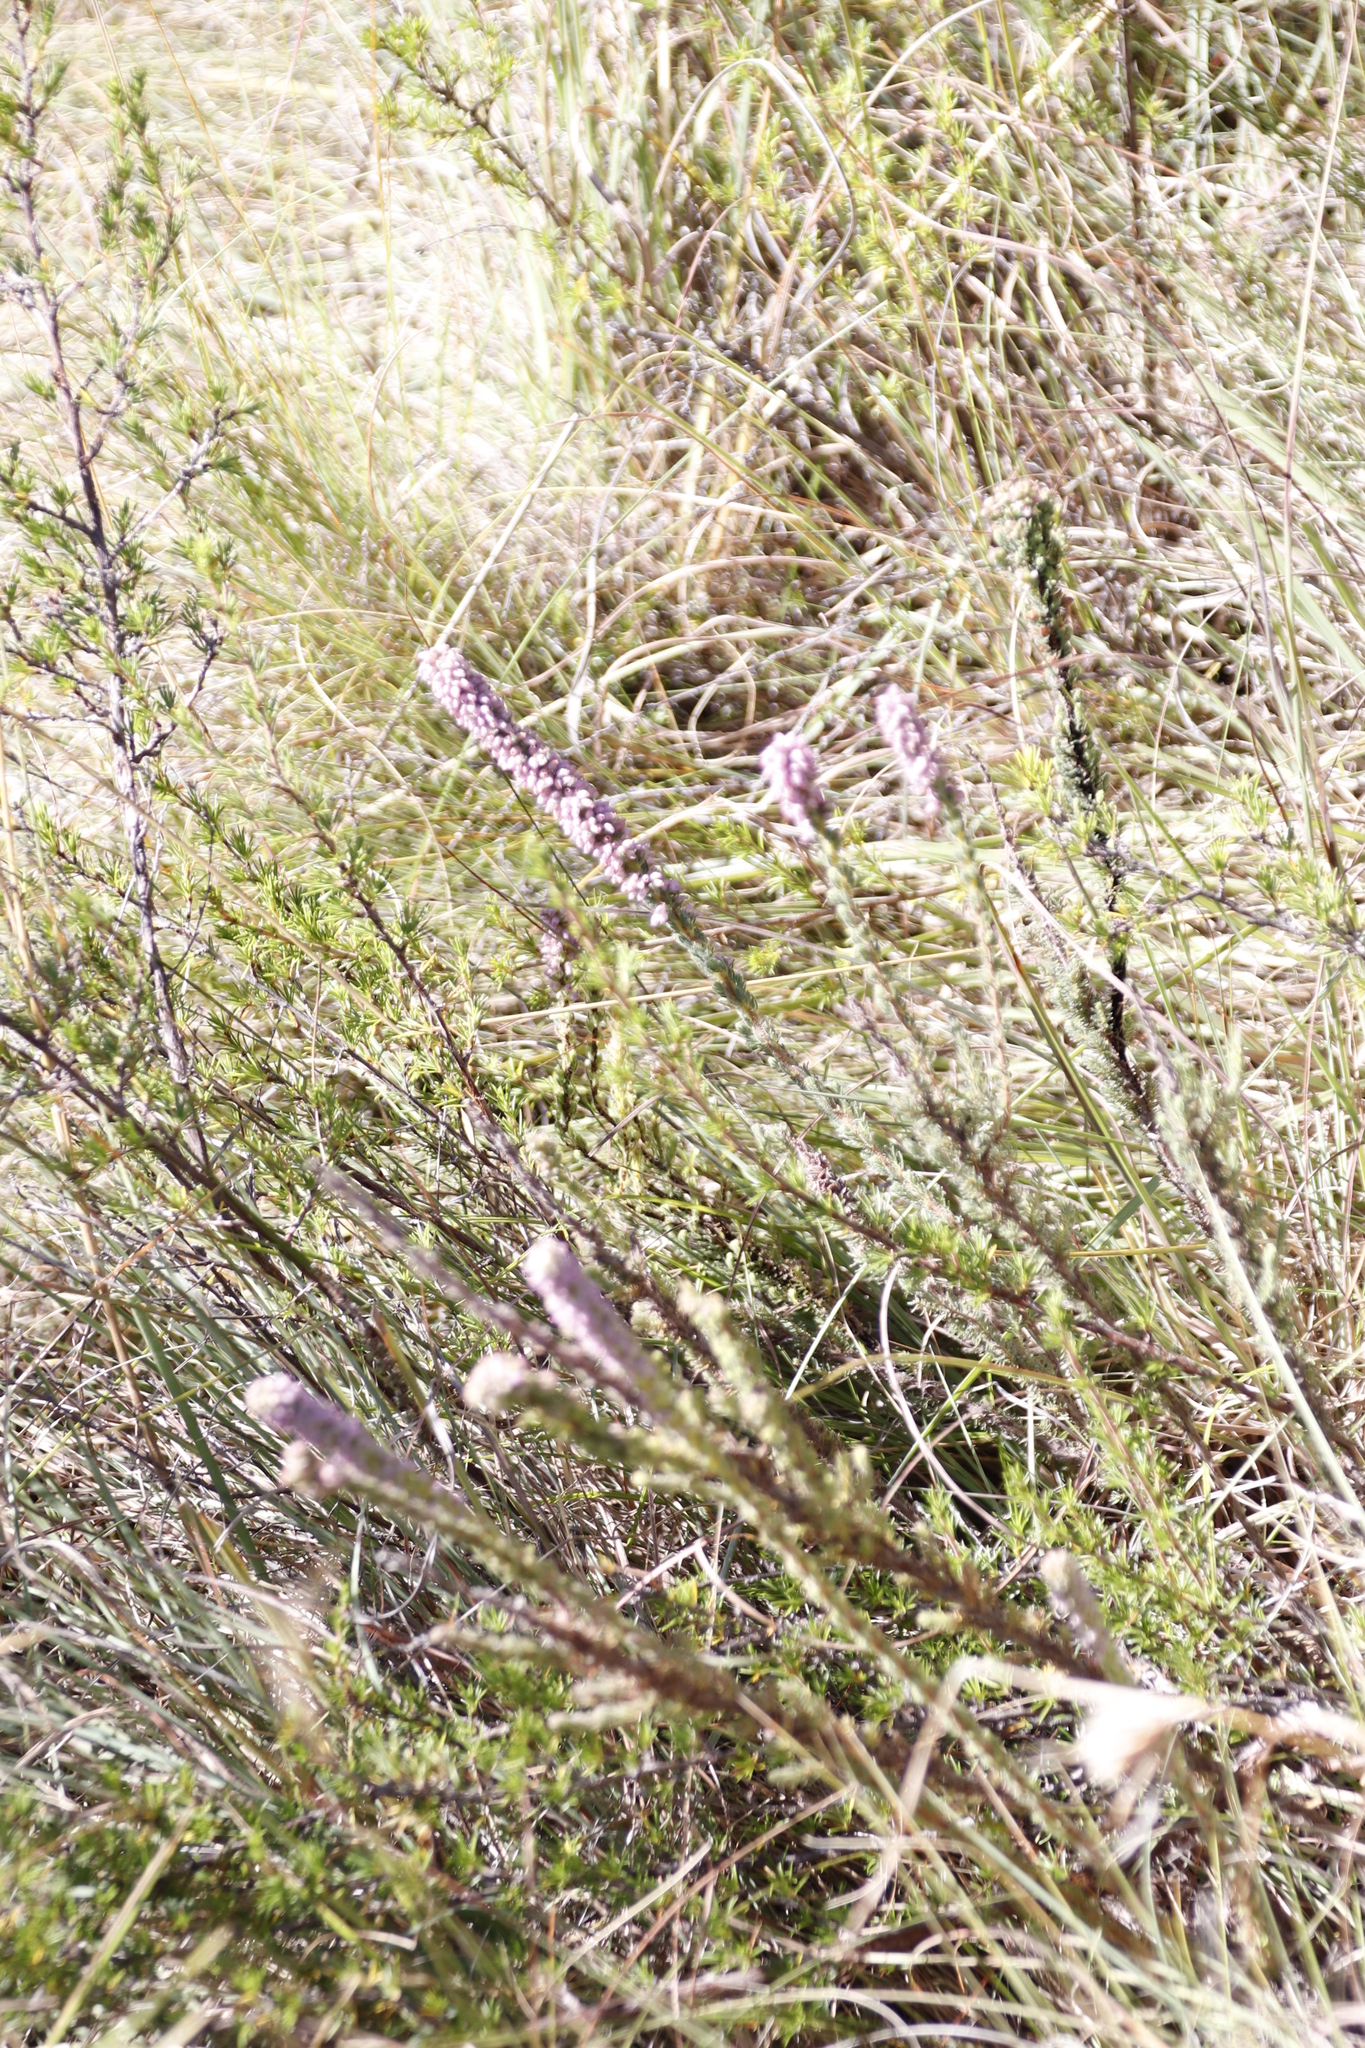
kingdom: Plantae
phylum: Tracheophyta
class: Magnoliopsida
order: Ericales
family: Ericaceae
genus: Erica
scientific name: Erica alopecurus
